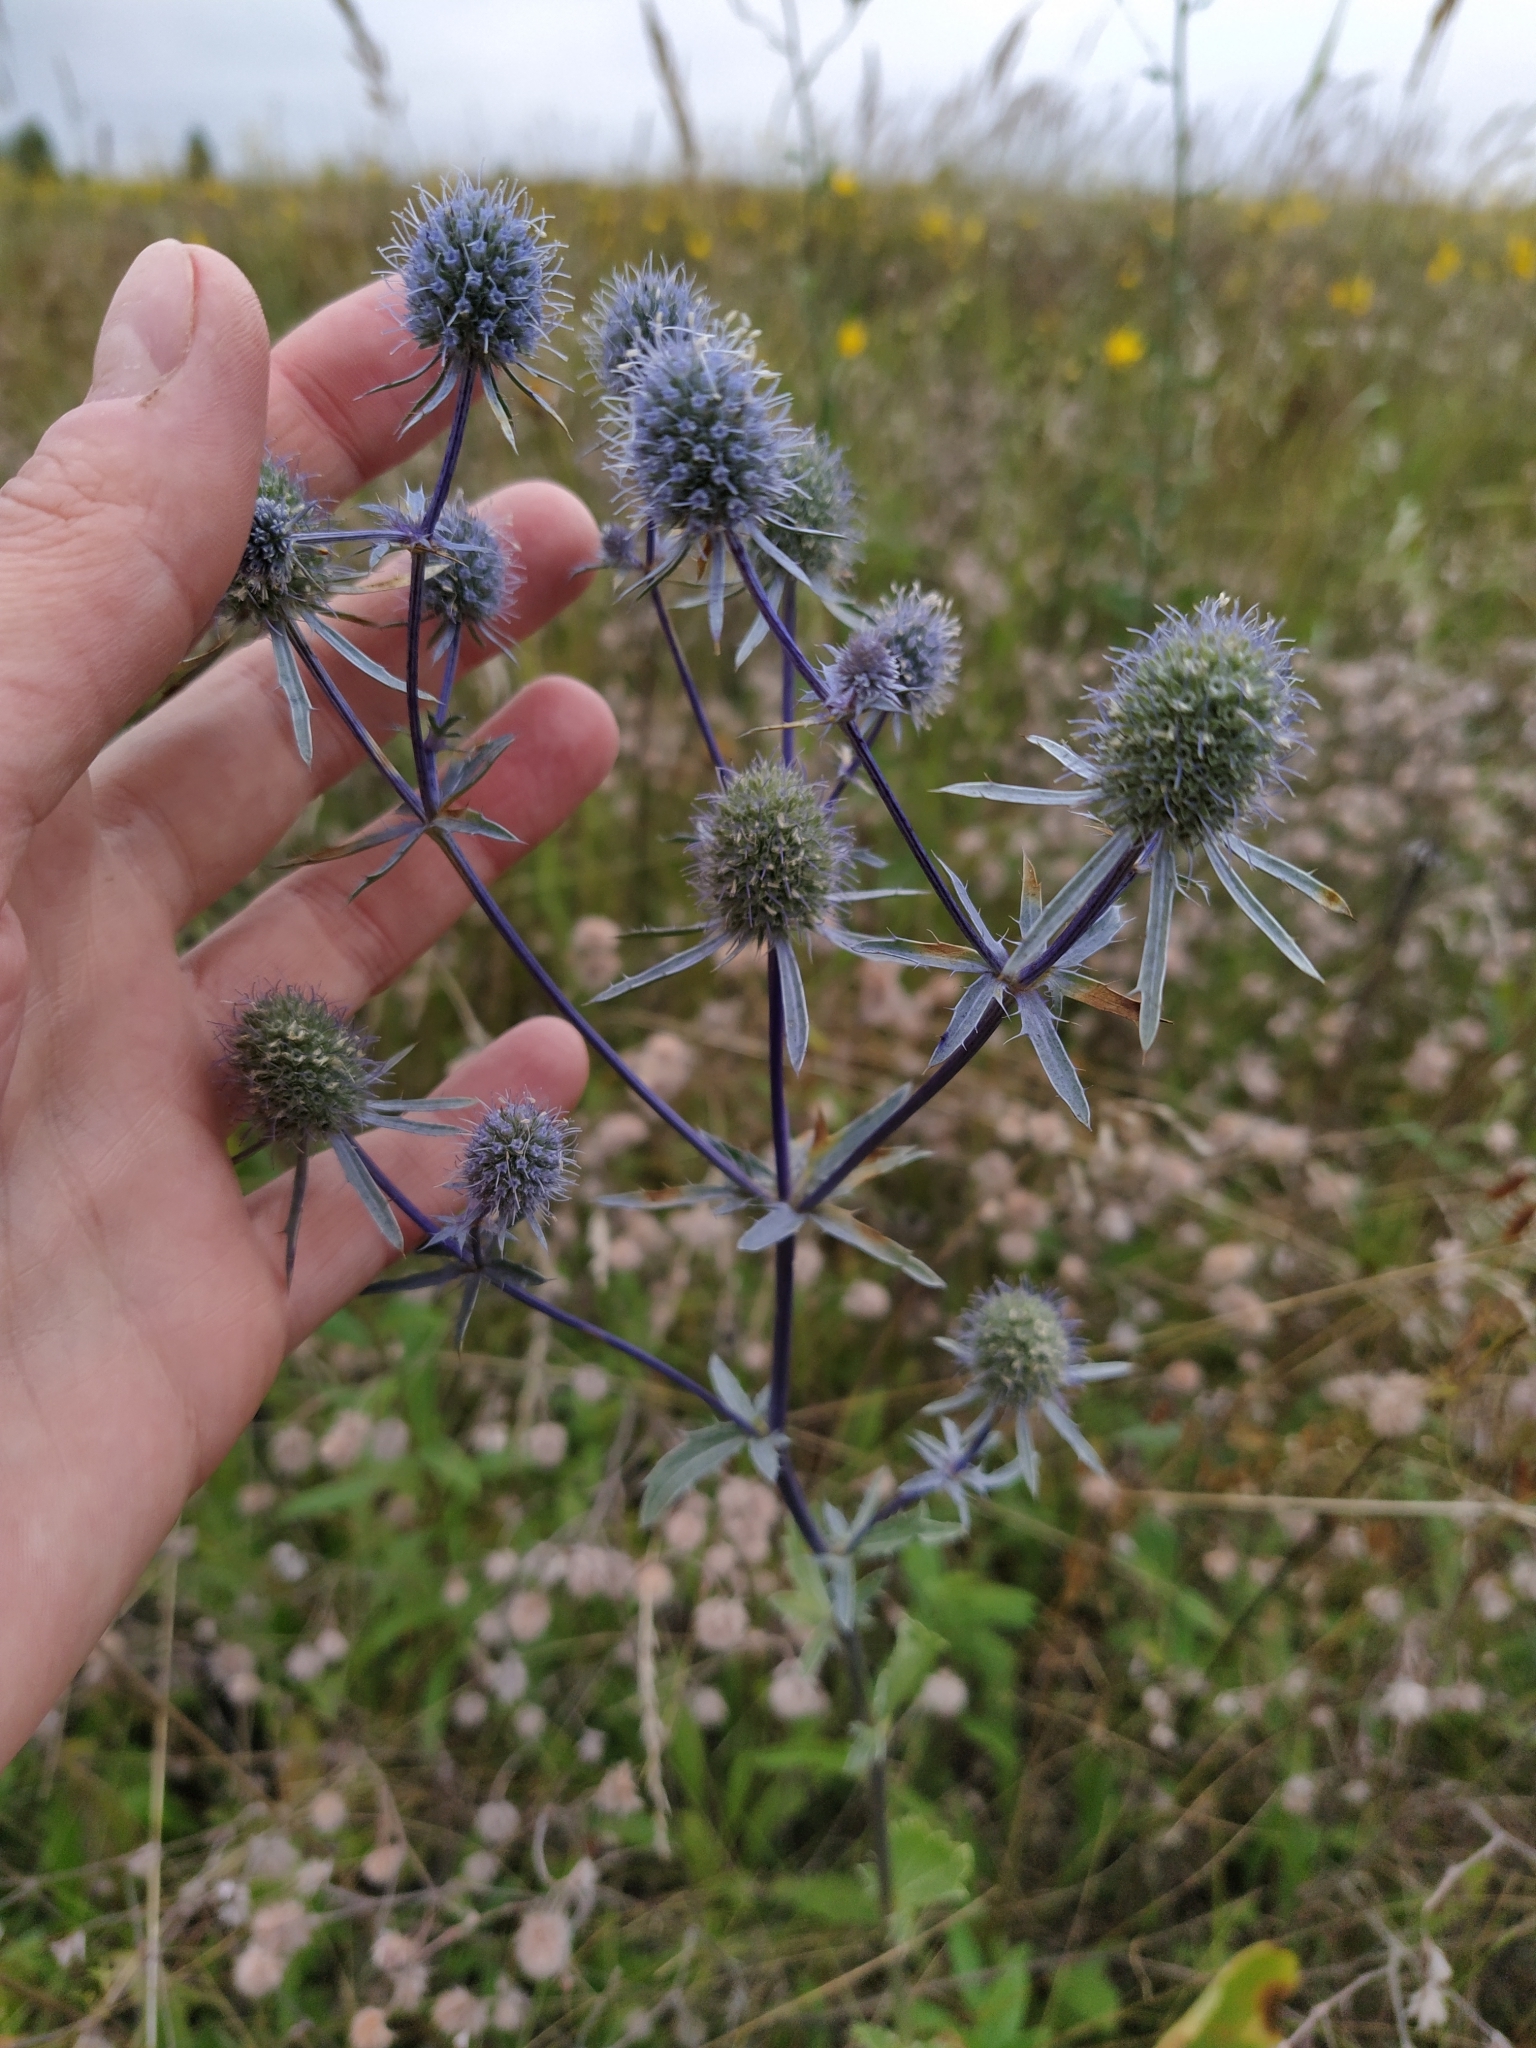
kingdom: Plantae
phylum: Tracheophyta
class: Magnoliopsida
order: Apiales
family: Apiaceae
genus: Eryngium
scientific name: Eryngium planum
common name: Blue eryngo
